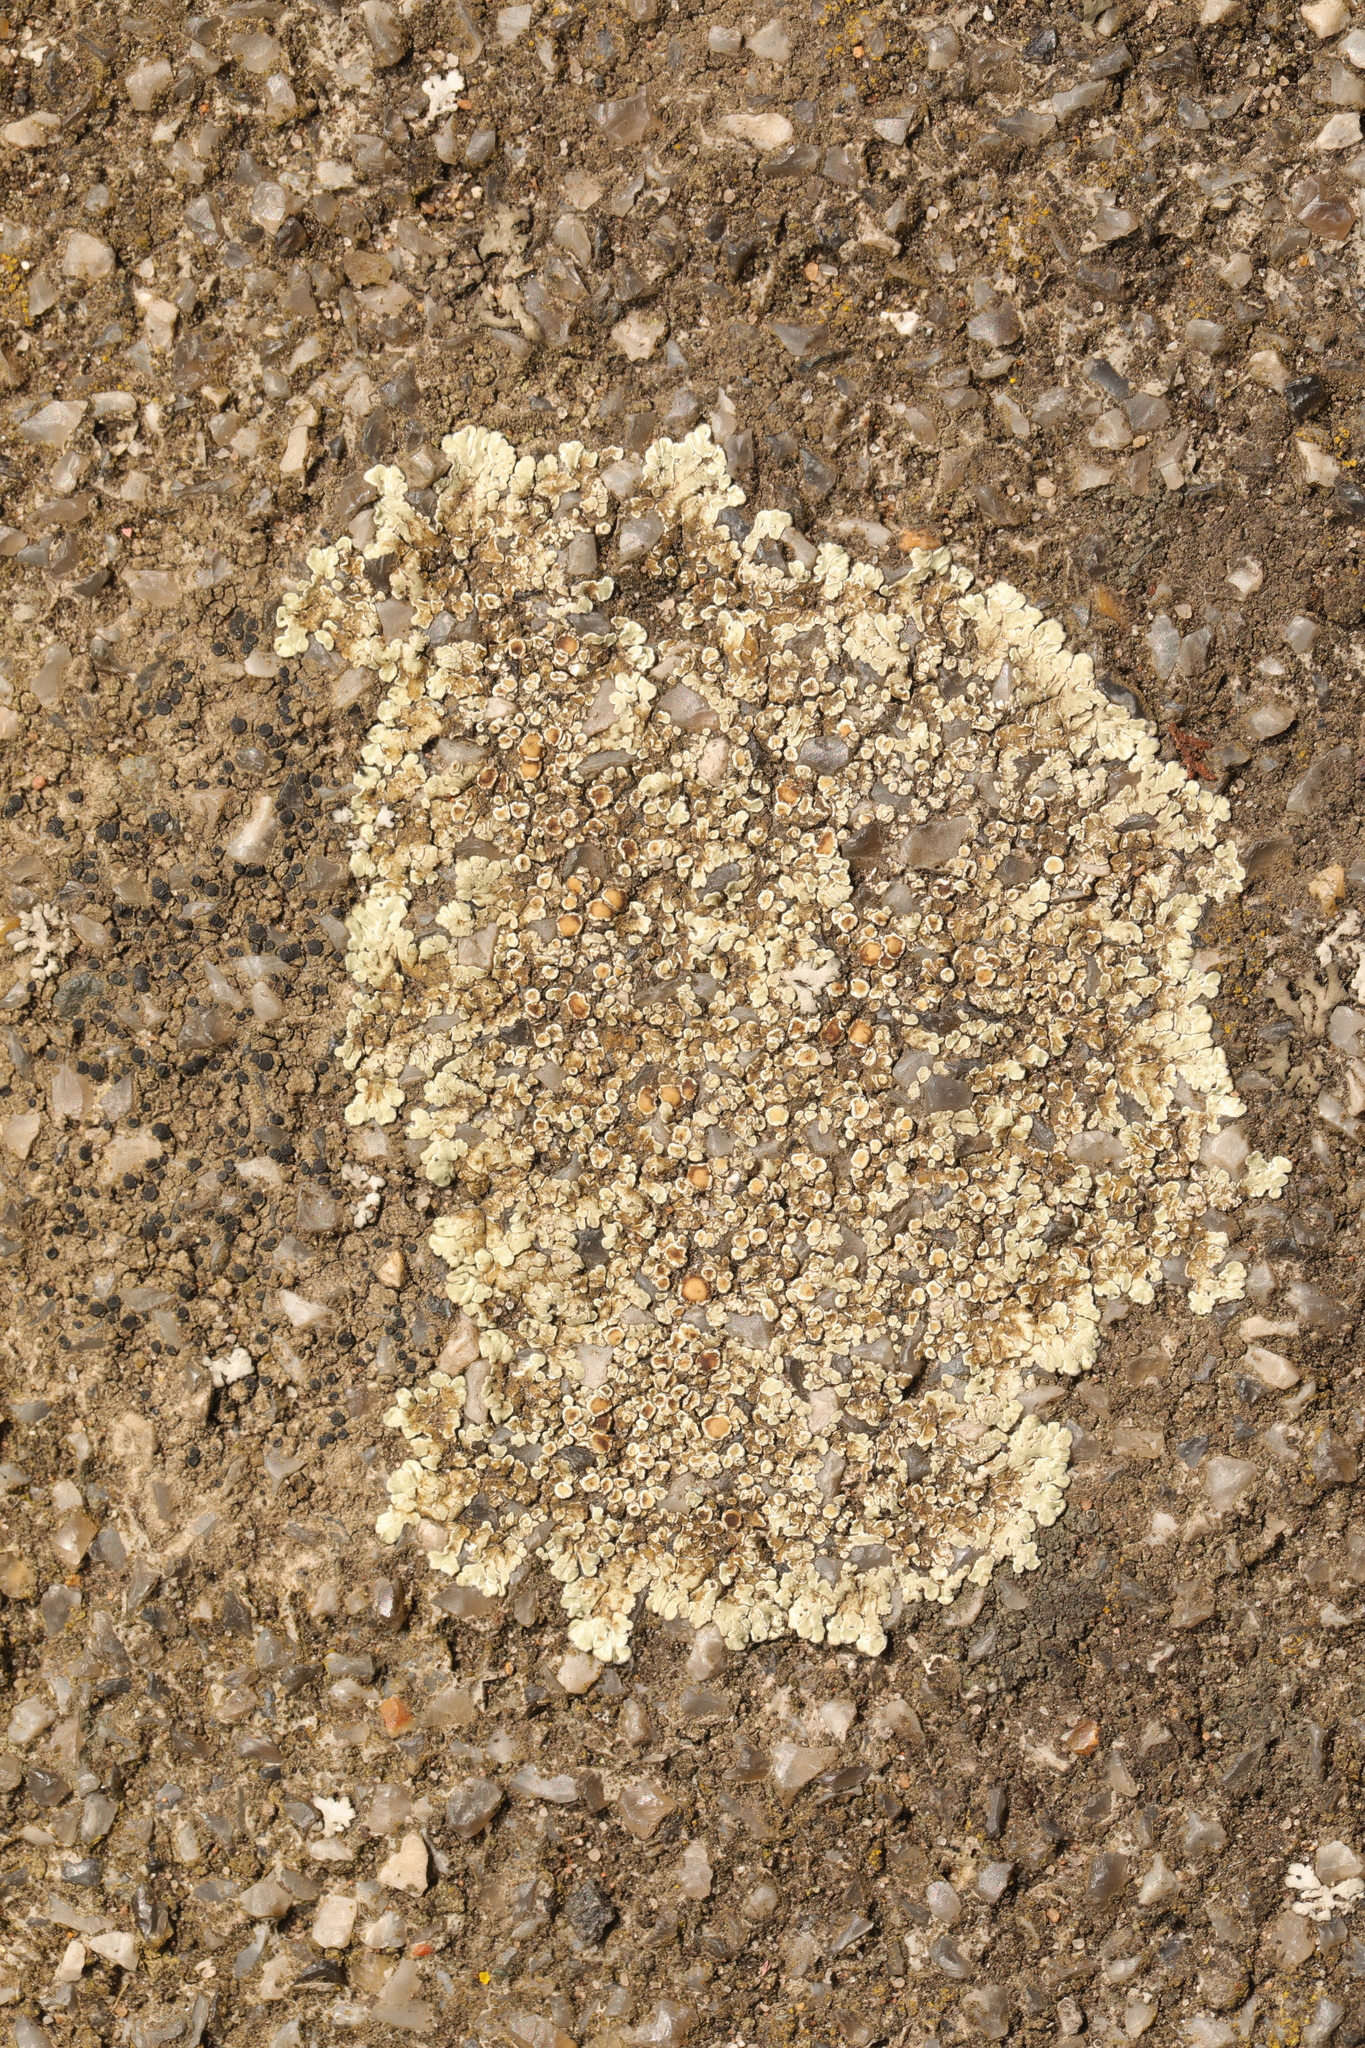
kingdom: Fungi
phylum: Ascomycota
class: Lecanoromycetes
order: Lecanorales
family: Lecanoraceae
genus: Protoparmeliopsis
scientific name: Protoparmeliopsis muralis
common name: Stonewall rim lichen
